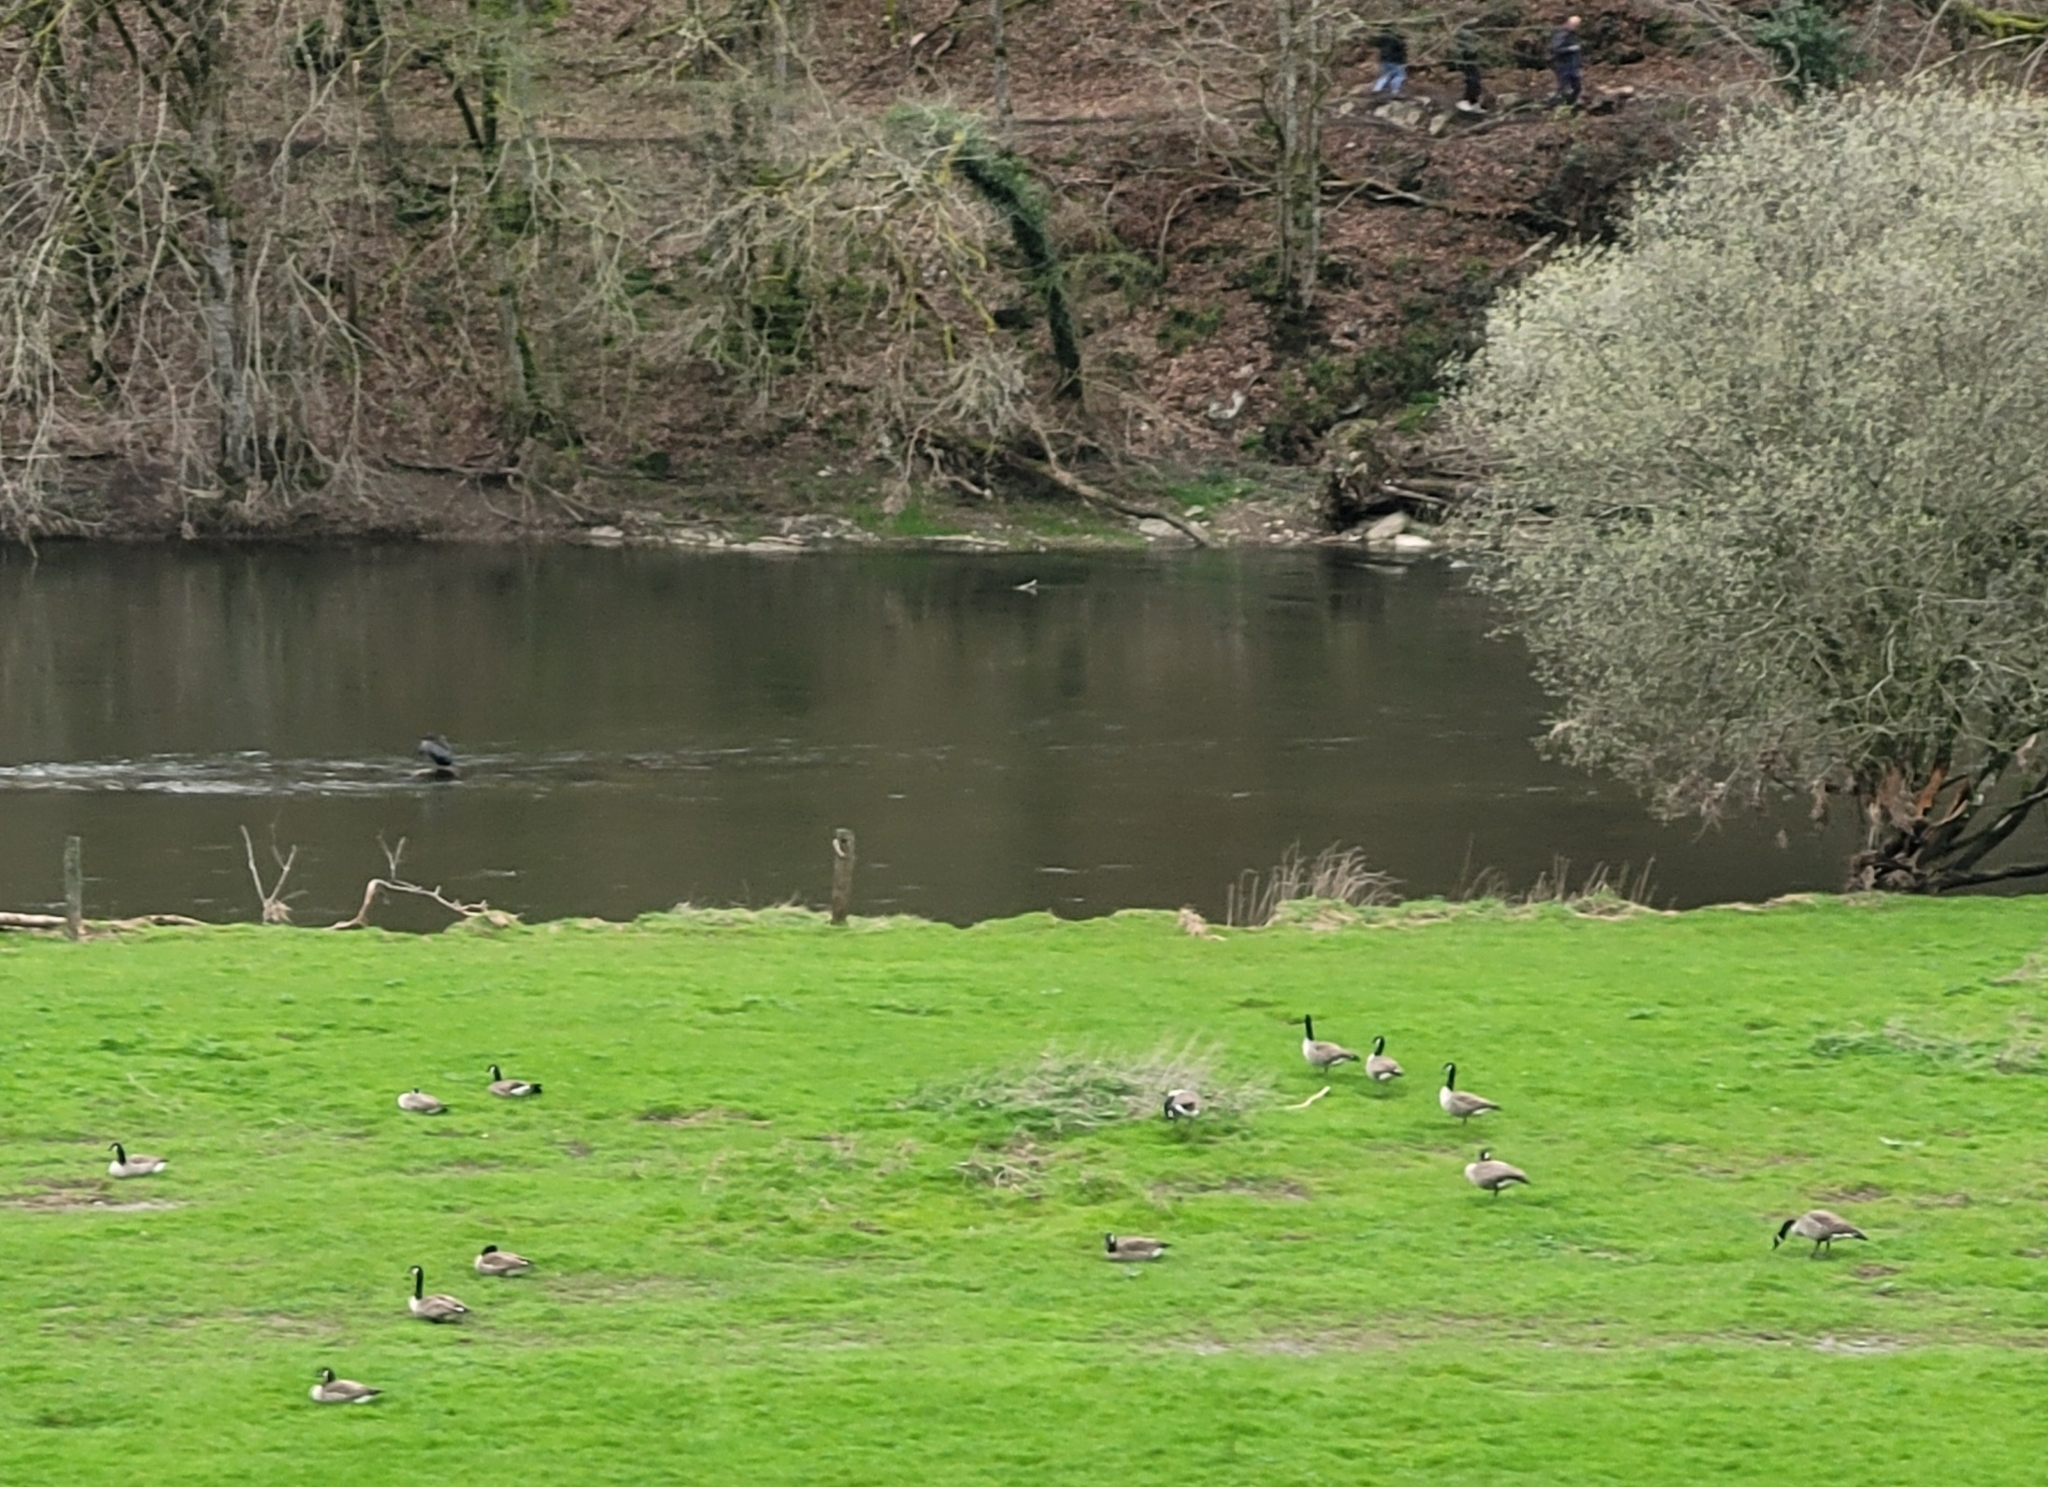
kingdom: Animalia
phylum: Chordata
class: Aves
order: Anseriformes
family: Anatidae
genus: Branta
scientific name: Branta canadensis
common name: Canada goose
